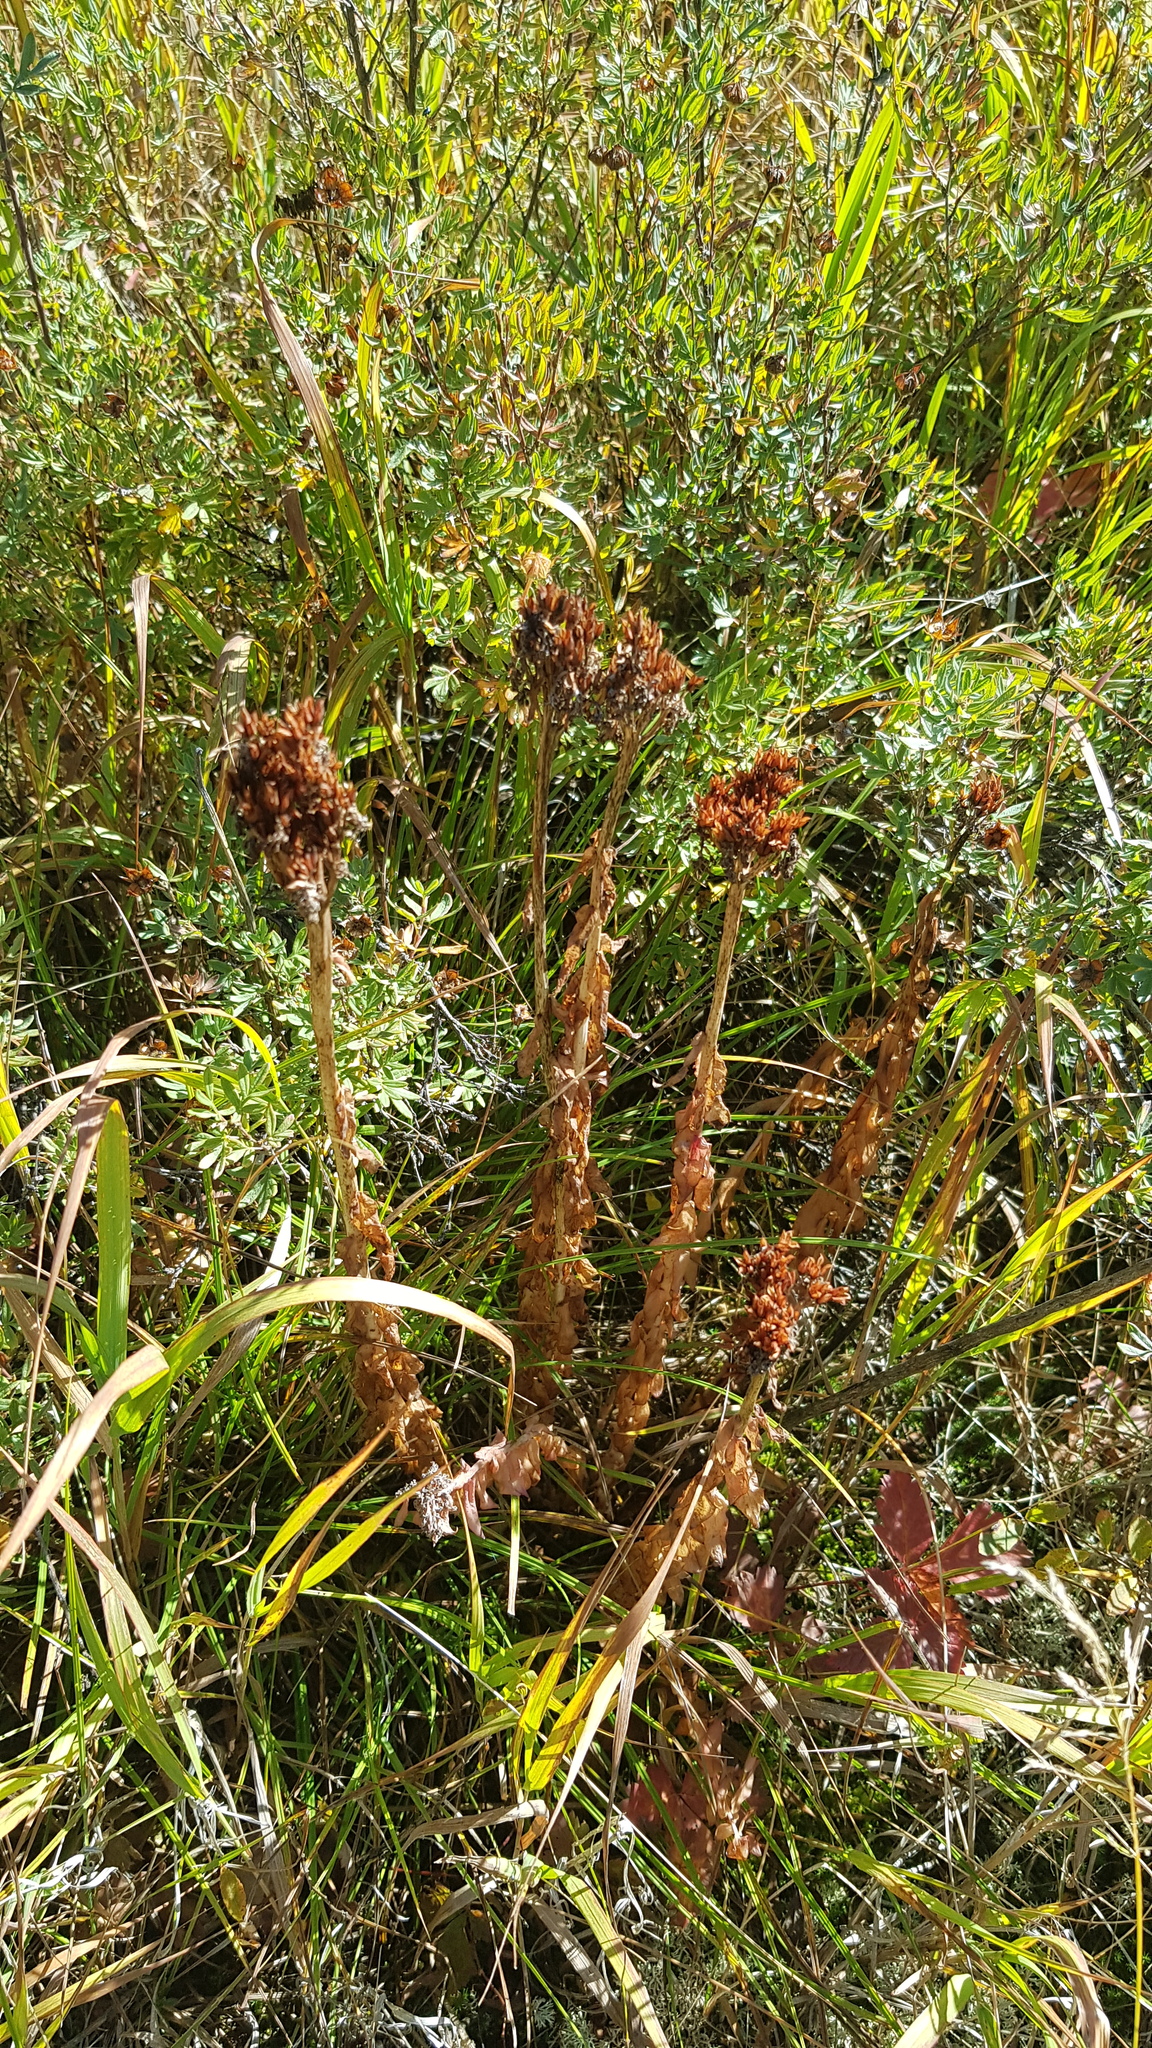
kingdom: Plantae
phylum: Tracheophyta
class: Magnoliopsida
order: Saxifragales
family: Crassulaceae
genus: Phedimus
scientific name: Phedimus aizoon
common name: Orpin aizoon
